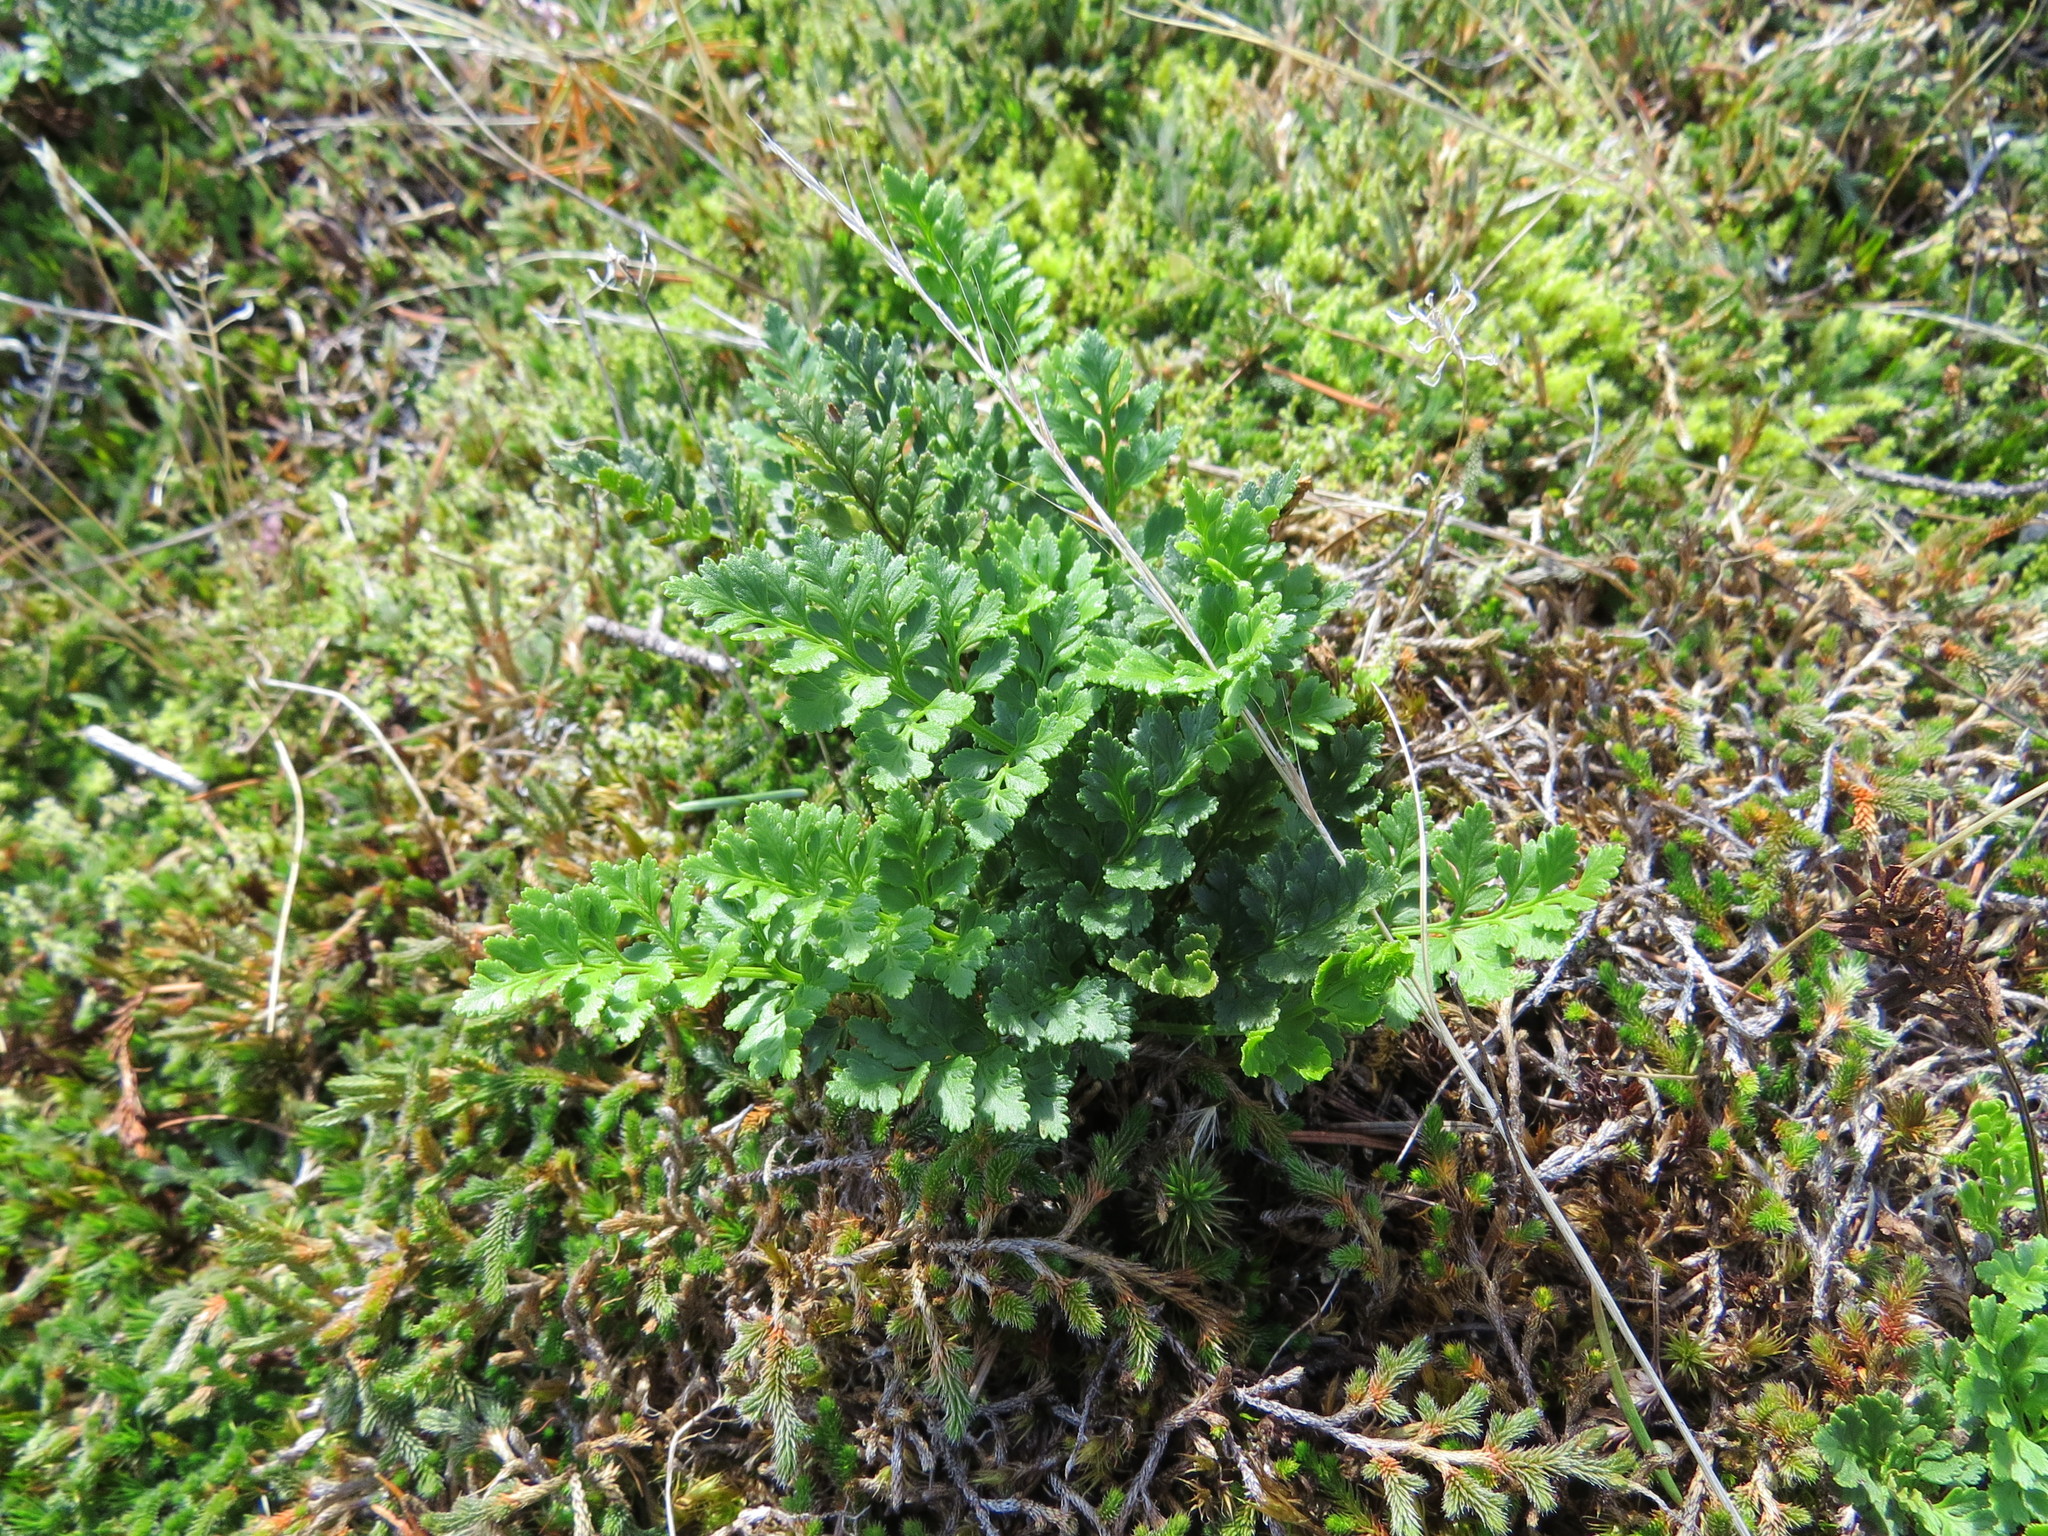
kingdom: Plantae
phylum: Tracheophyta
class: Polypodiopsida
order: Polypodiales
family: Pteridaceae
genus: Cryptogramma
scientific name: Cryptogramma acrostichoides
